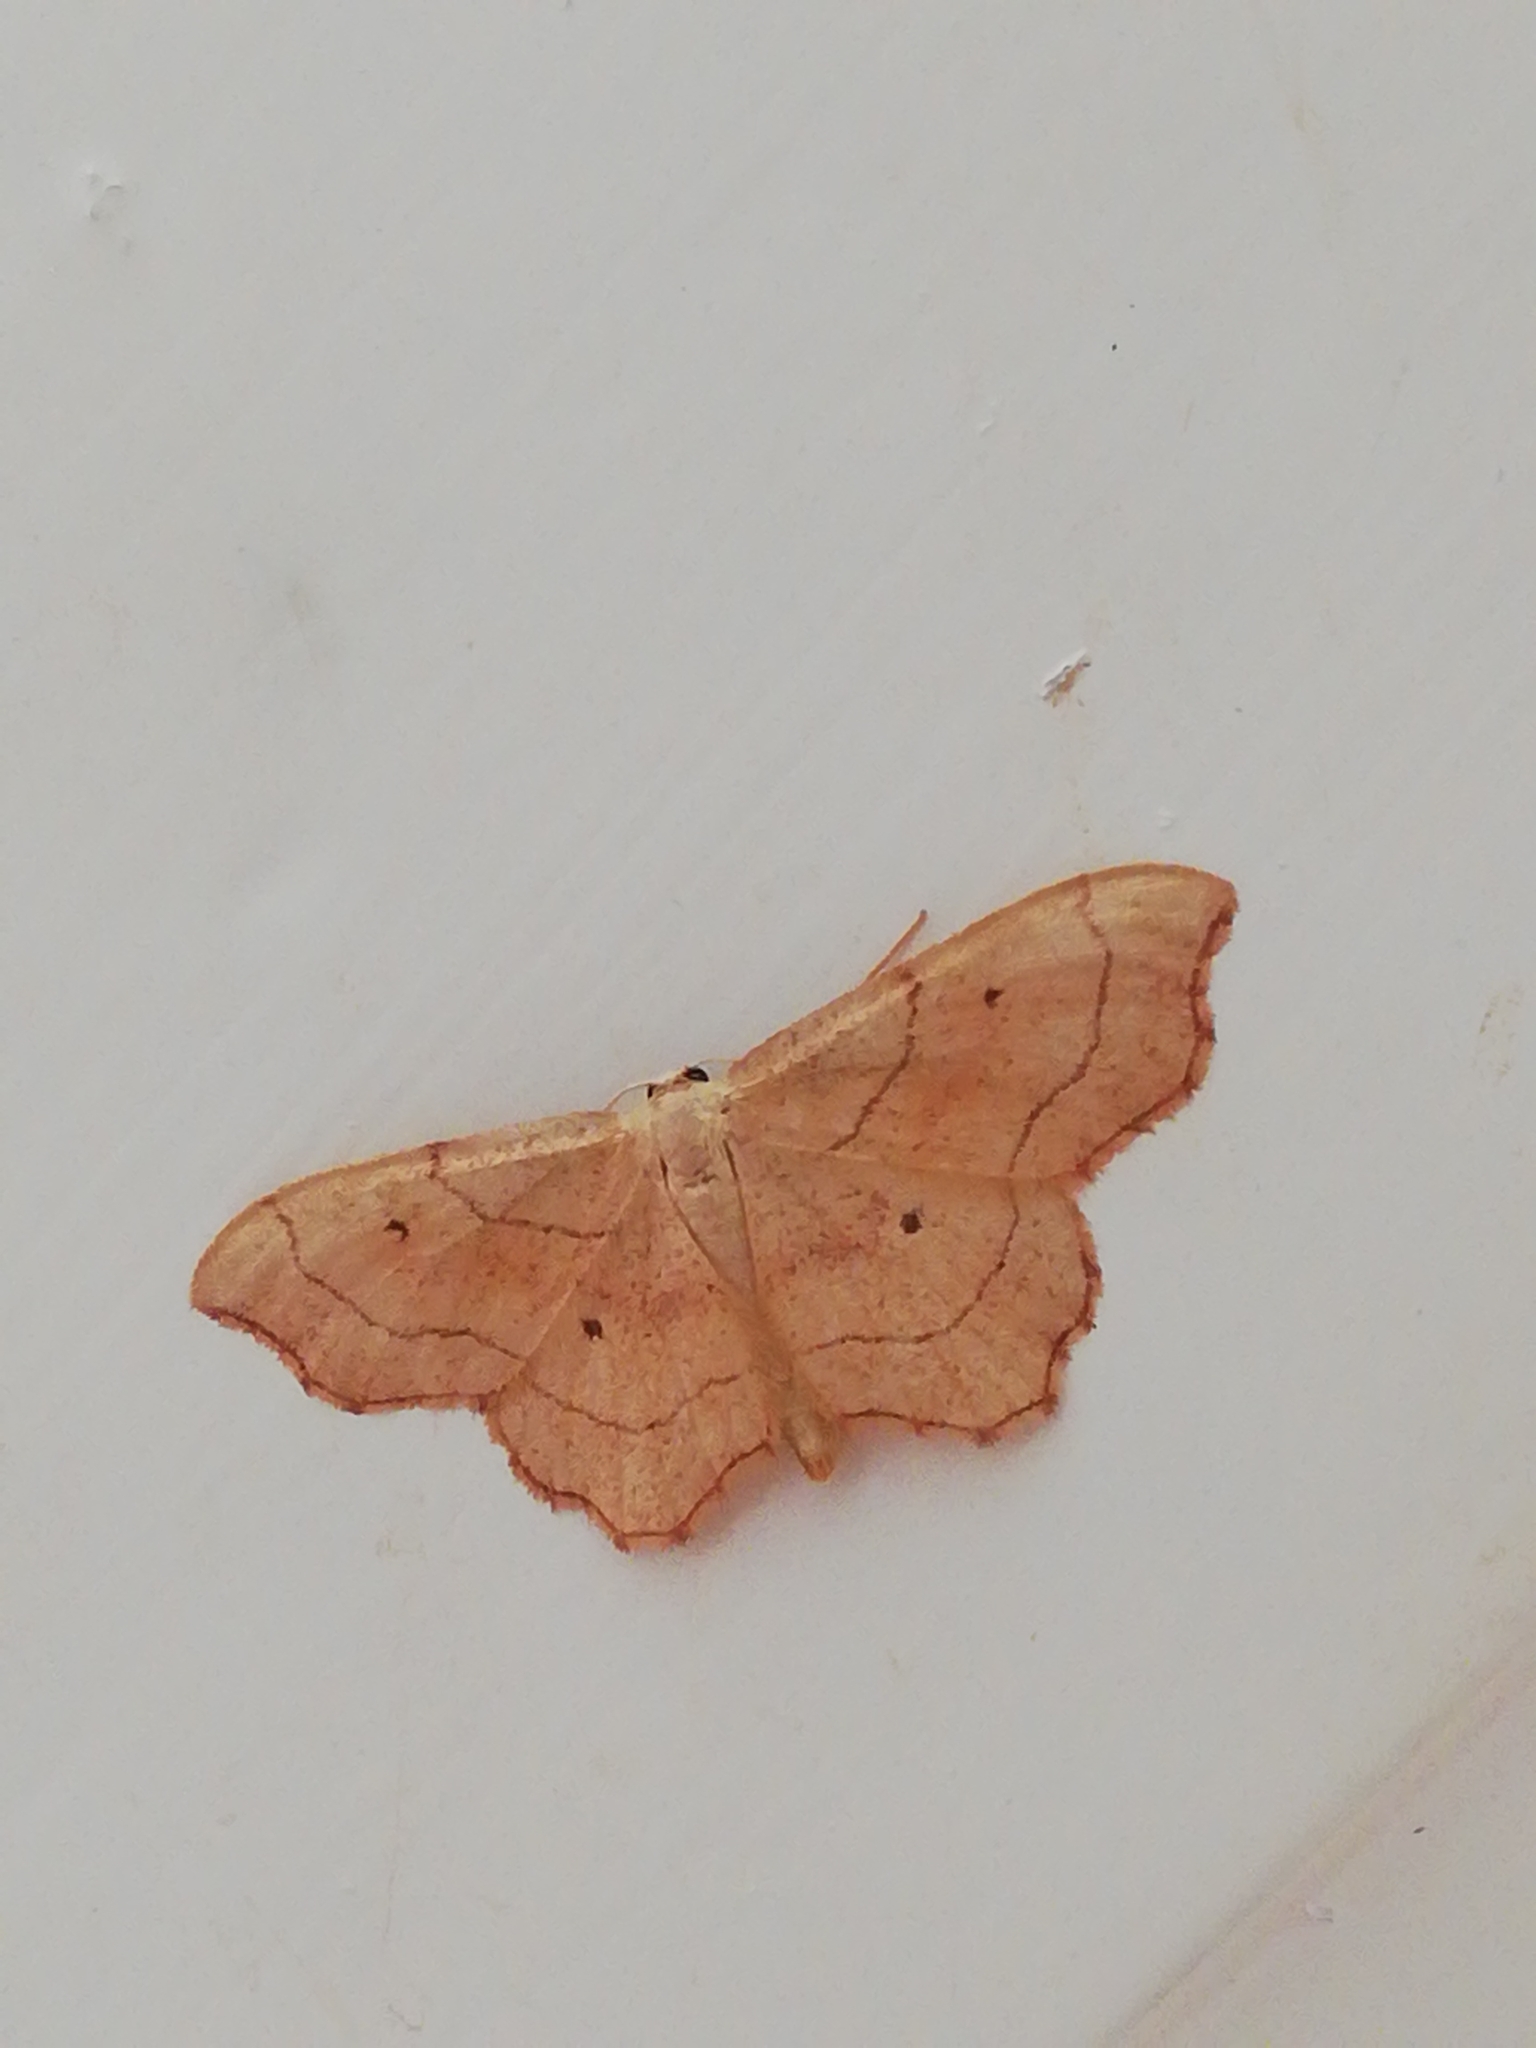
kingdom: Animalia
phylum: Arthropoda
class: Insecta
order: Lepidoptera
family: Geometridae
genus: Idaea
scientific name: Idaea emarginata
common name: Small scallop
